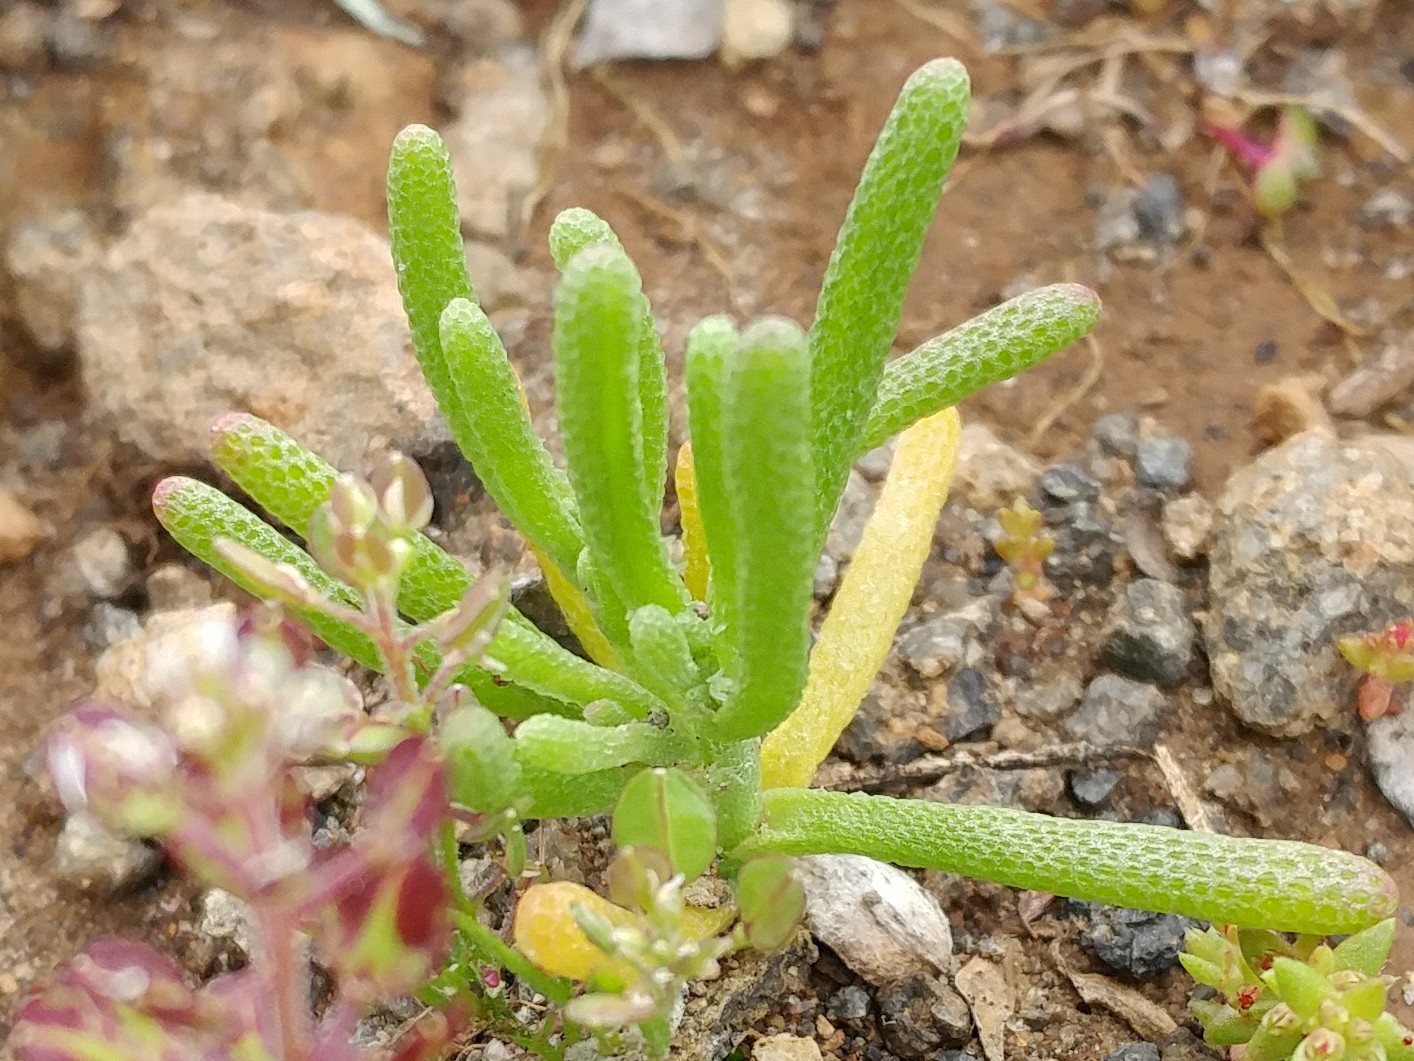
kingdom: Plantae
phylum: Tracheophyta
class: Magnoliopsida
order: Caryophyllales
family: Aizoaceae
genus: Mesembryanthemum
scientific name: Mesembryanthemum nodiflorum
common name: Slenderleaf iceplant
